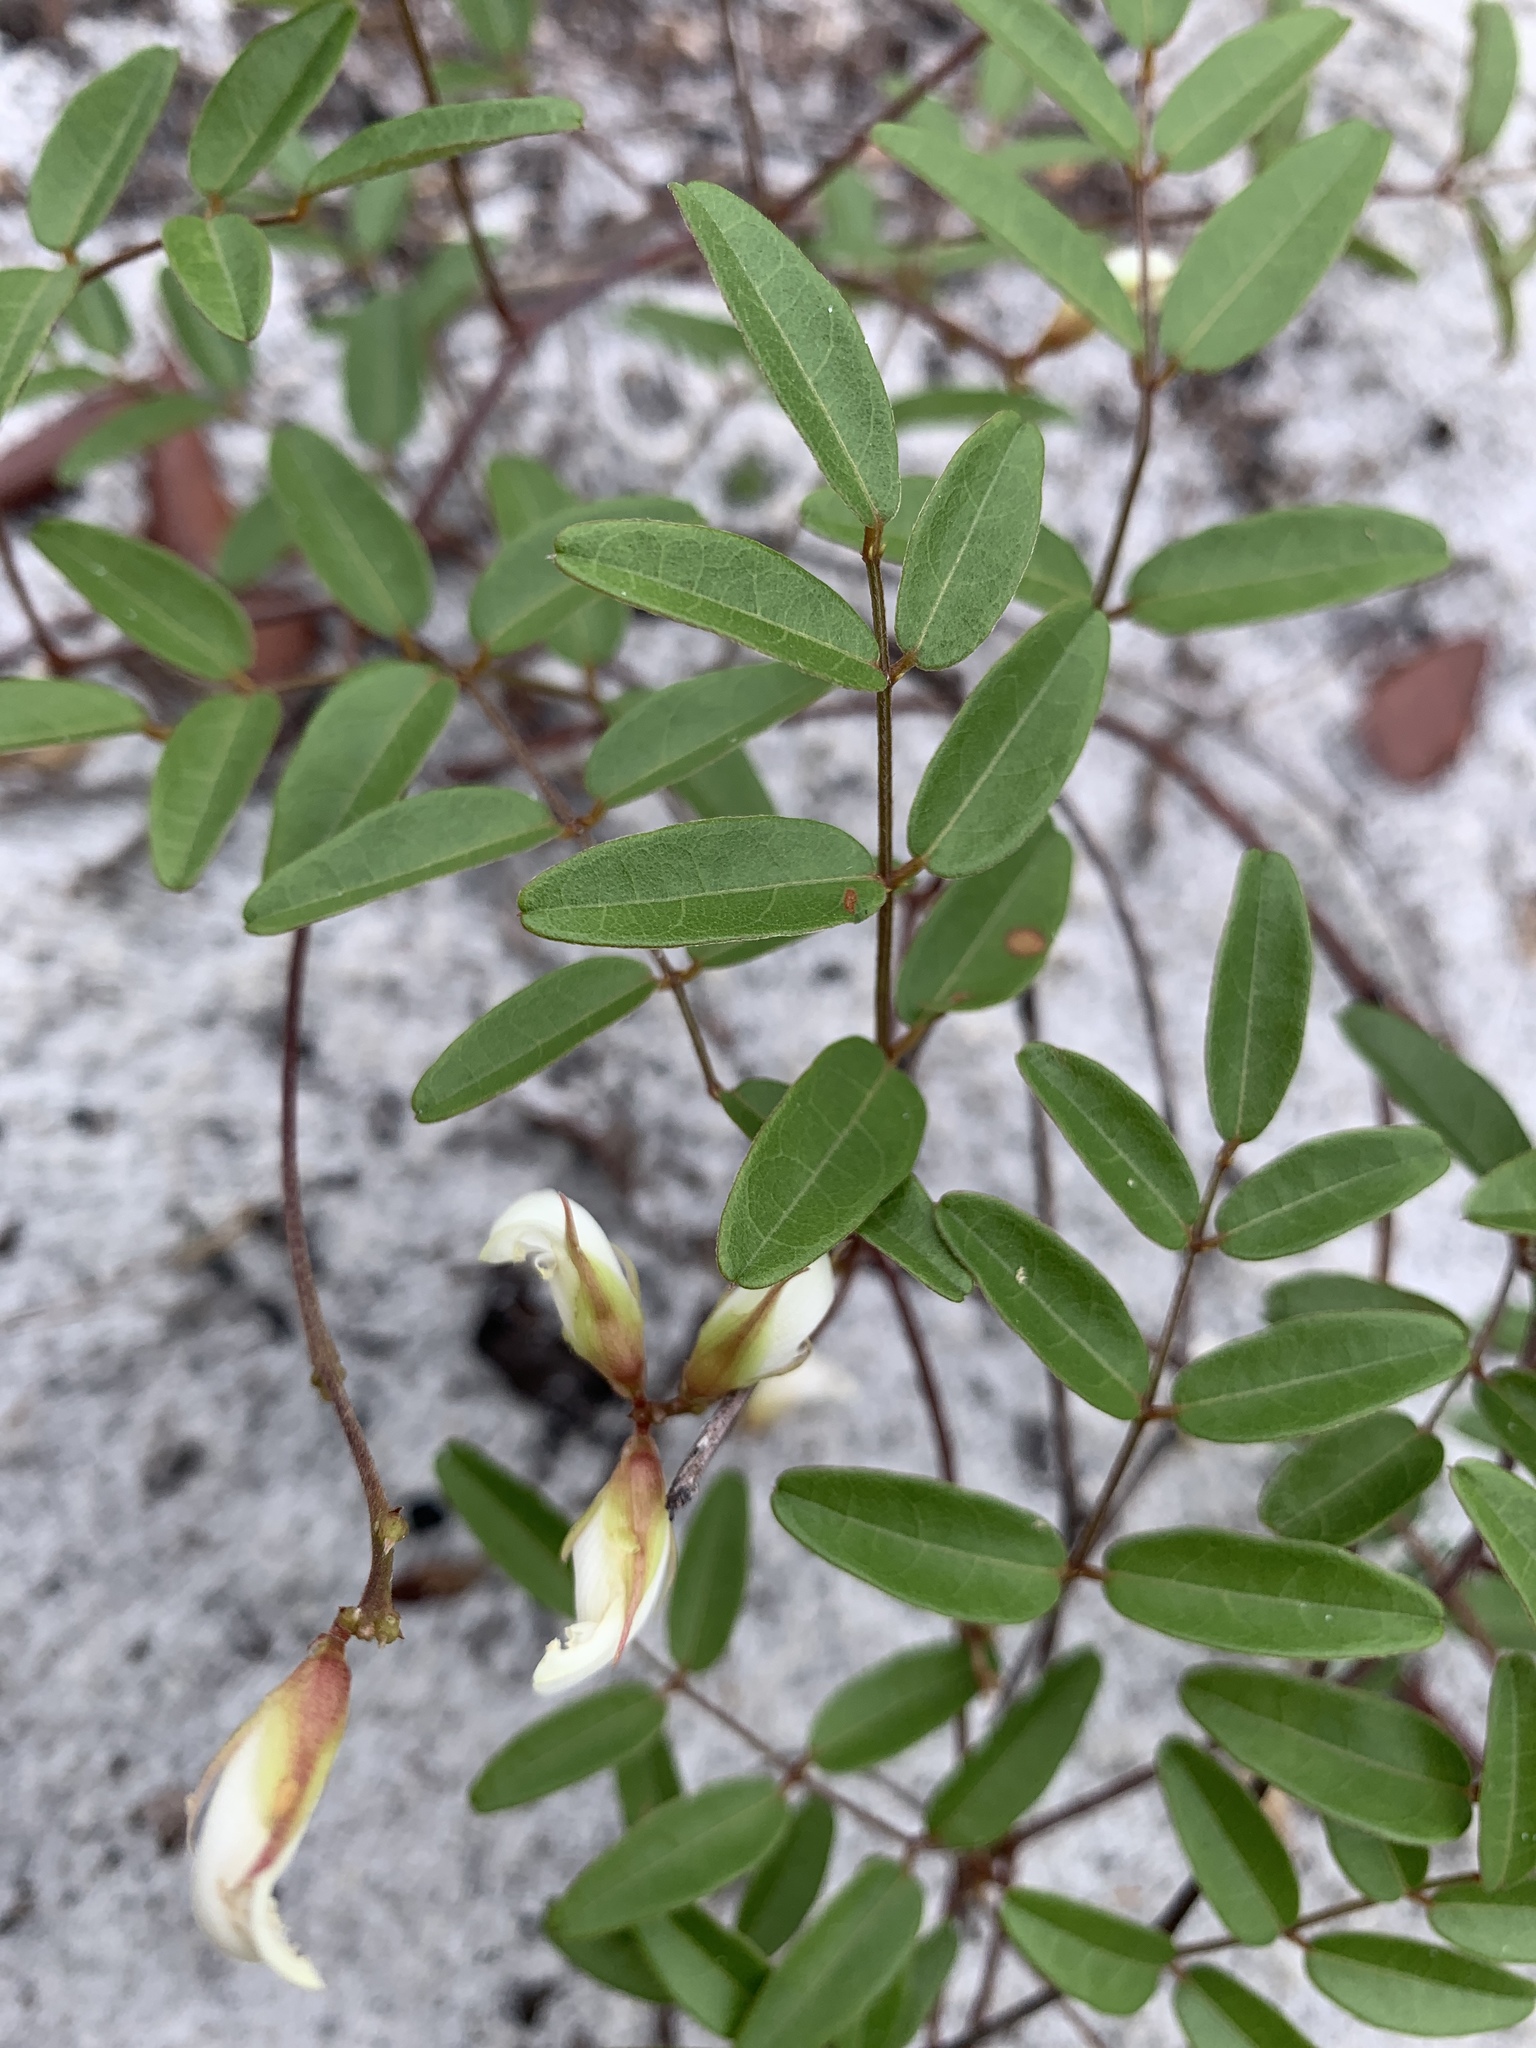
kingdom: Plantae
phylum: Tracheophyta
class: Magnoliopsida
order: Fabales
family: Fabaceae
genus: Galactia
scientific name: Galactia elliottii
